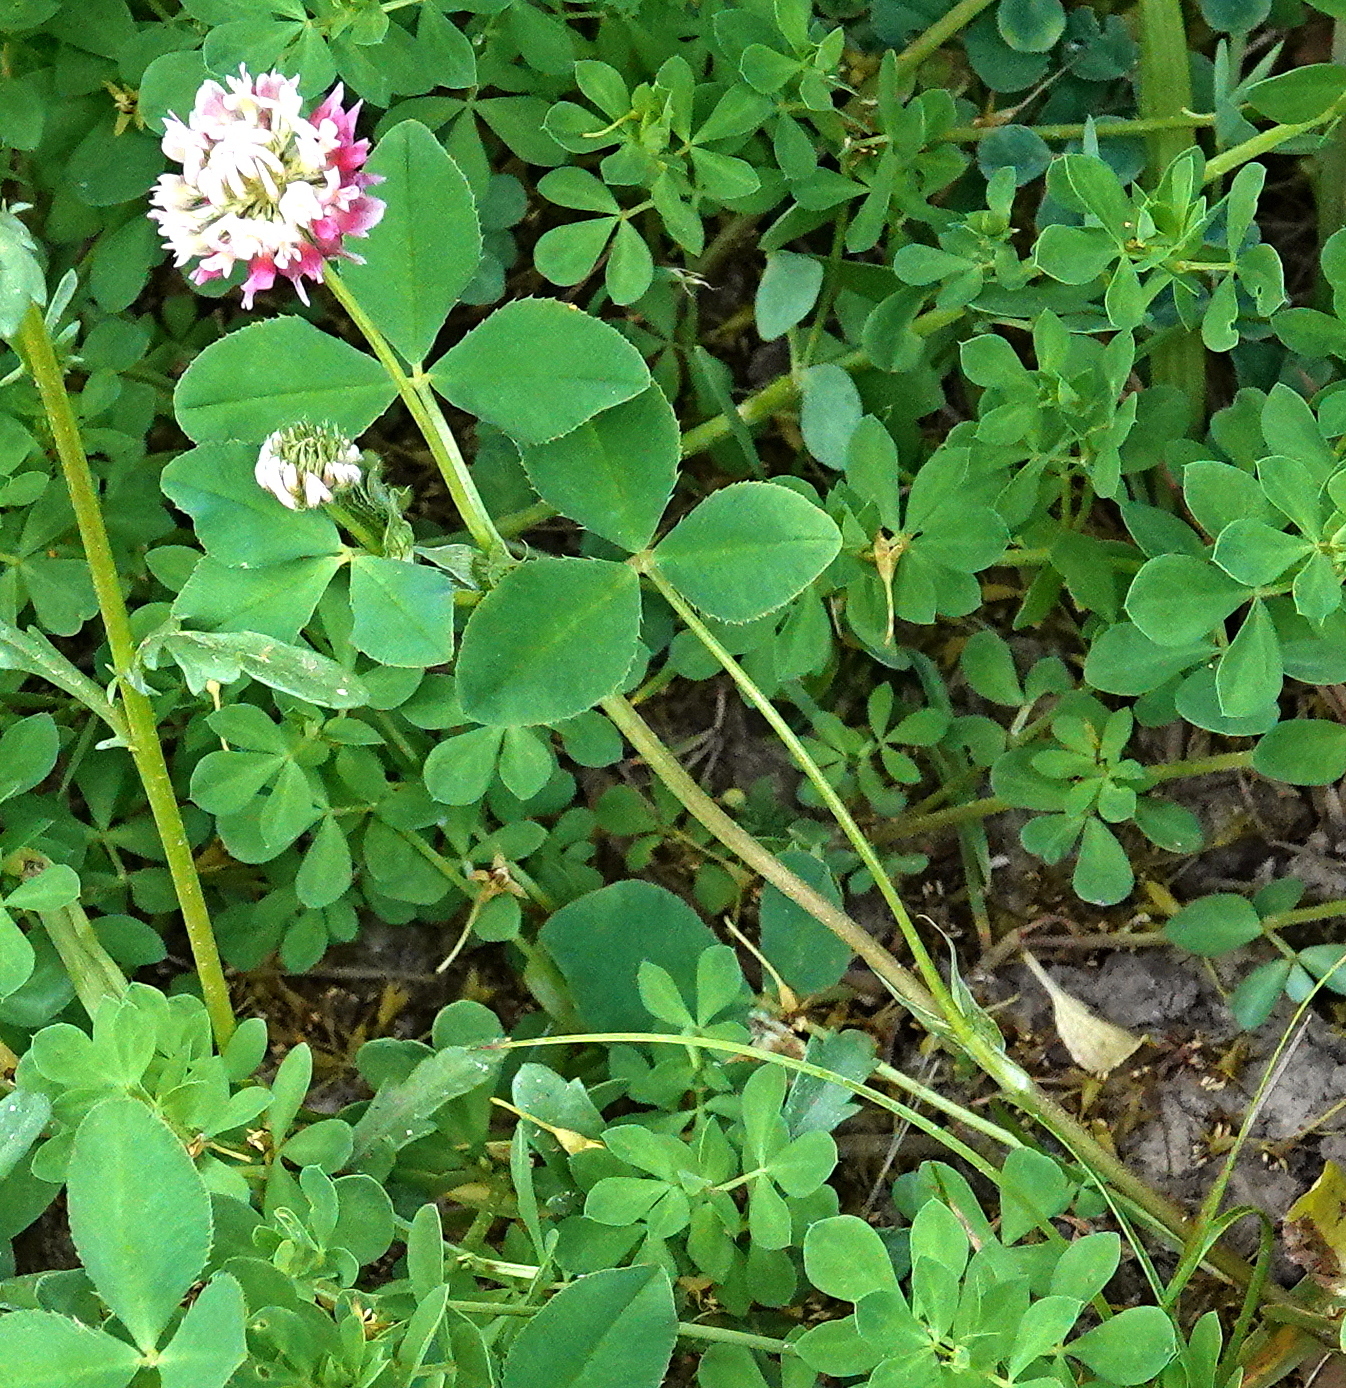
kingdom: Plantae
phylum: Tracheophyta
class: Magnoliopsida
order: Fabales
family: Fabaceae
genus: Trifolium
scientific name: Trifolium hybridum
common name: Alsike clover
